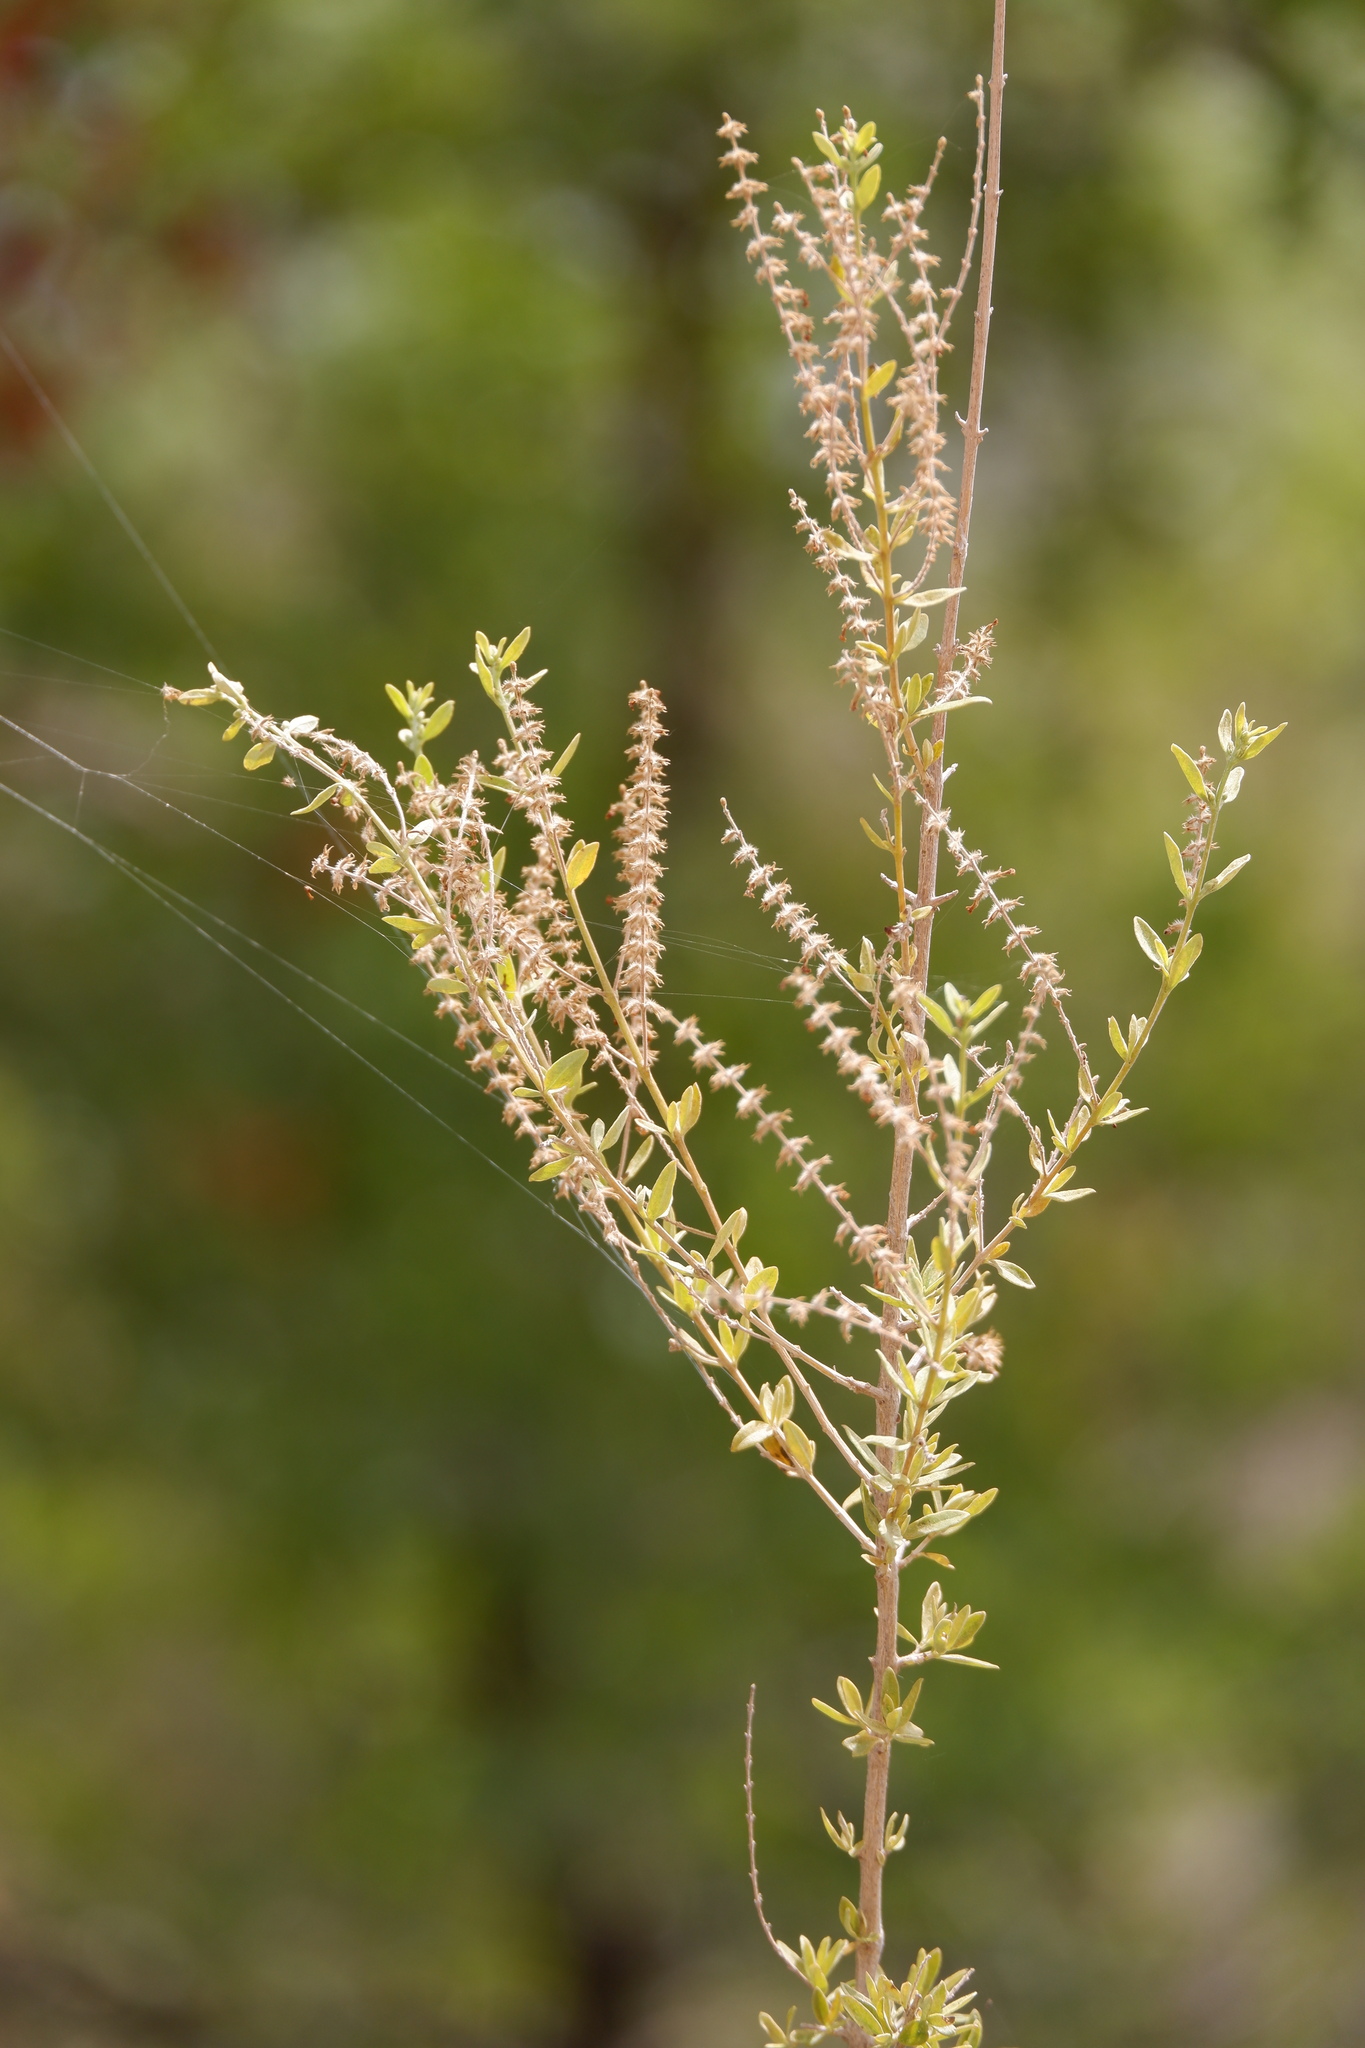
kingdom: Plantae
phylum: Tracheophyta
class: Magnoliopsida
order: Lamiales
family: Verbenaceae
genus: Aloysia
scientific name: Aloysia gratissima
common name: Common bee-brush
